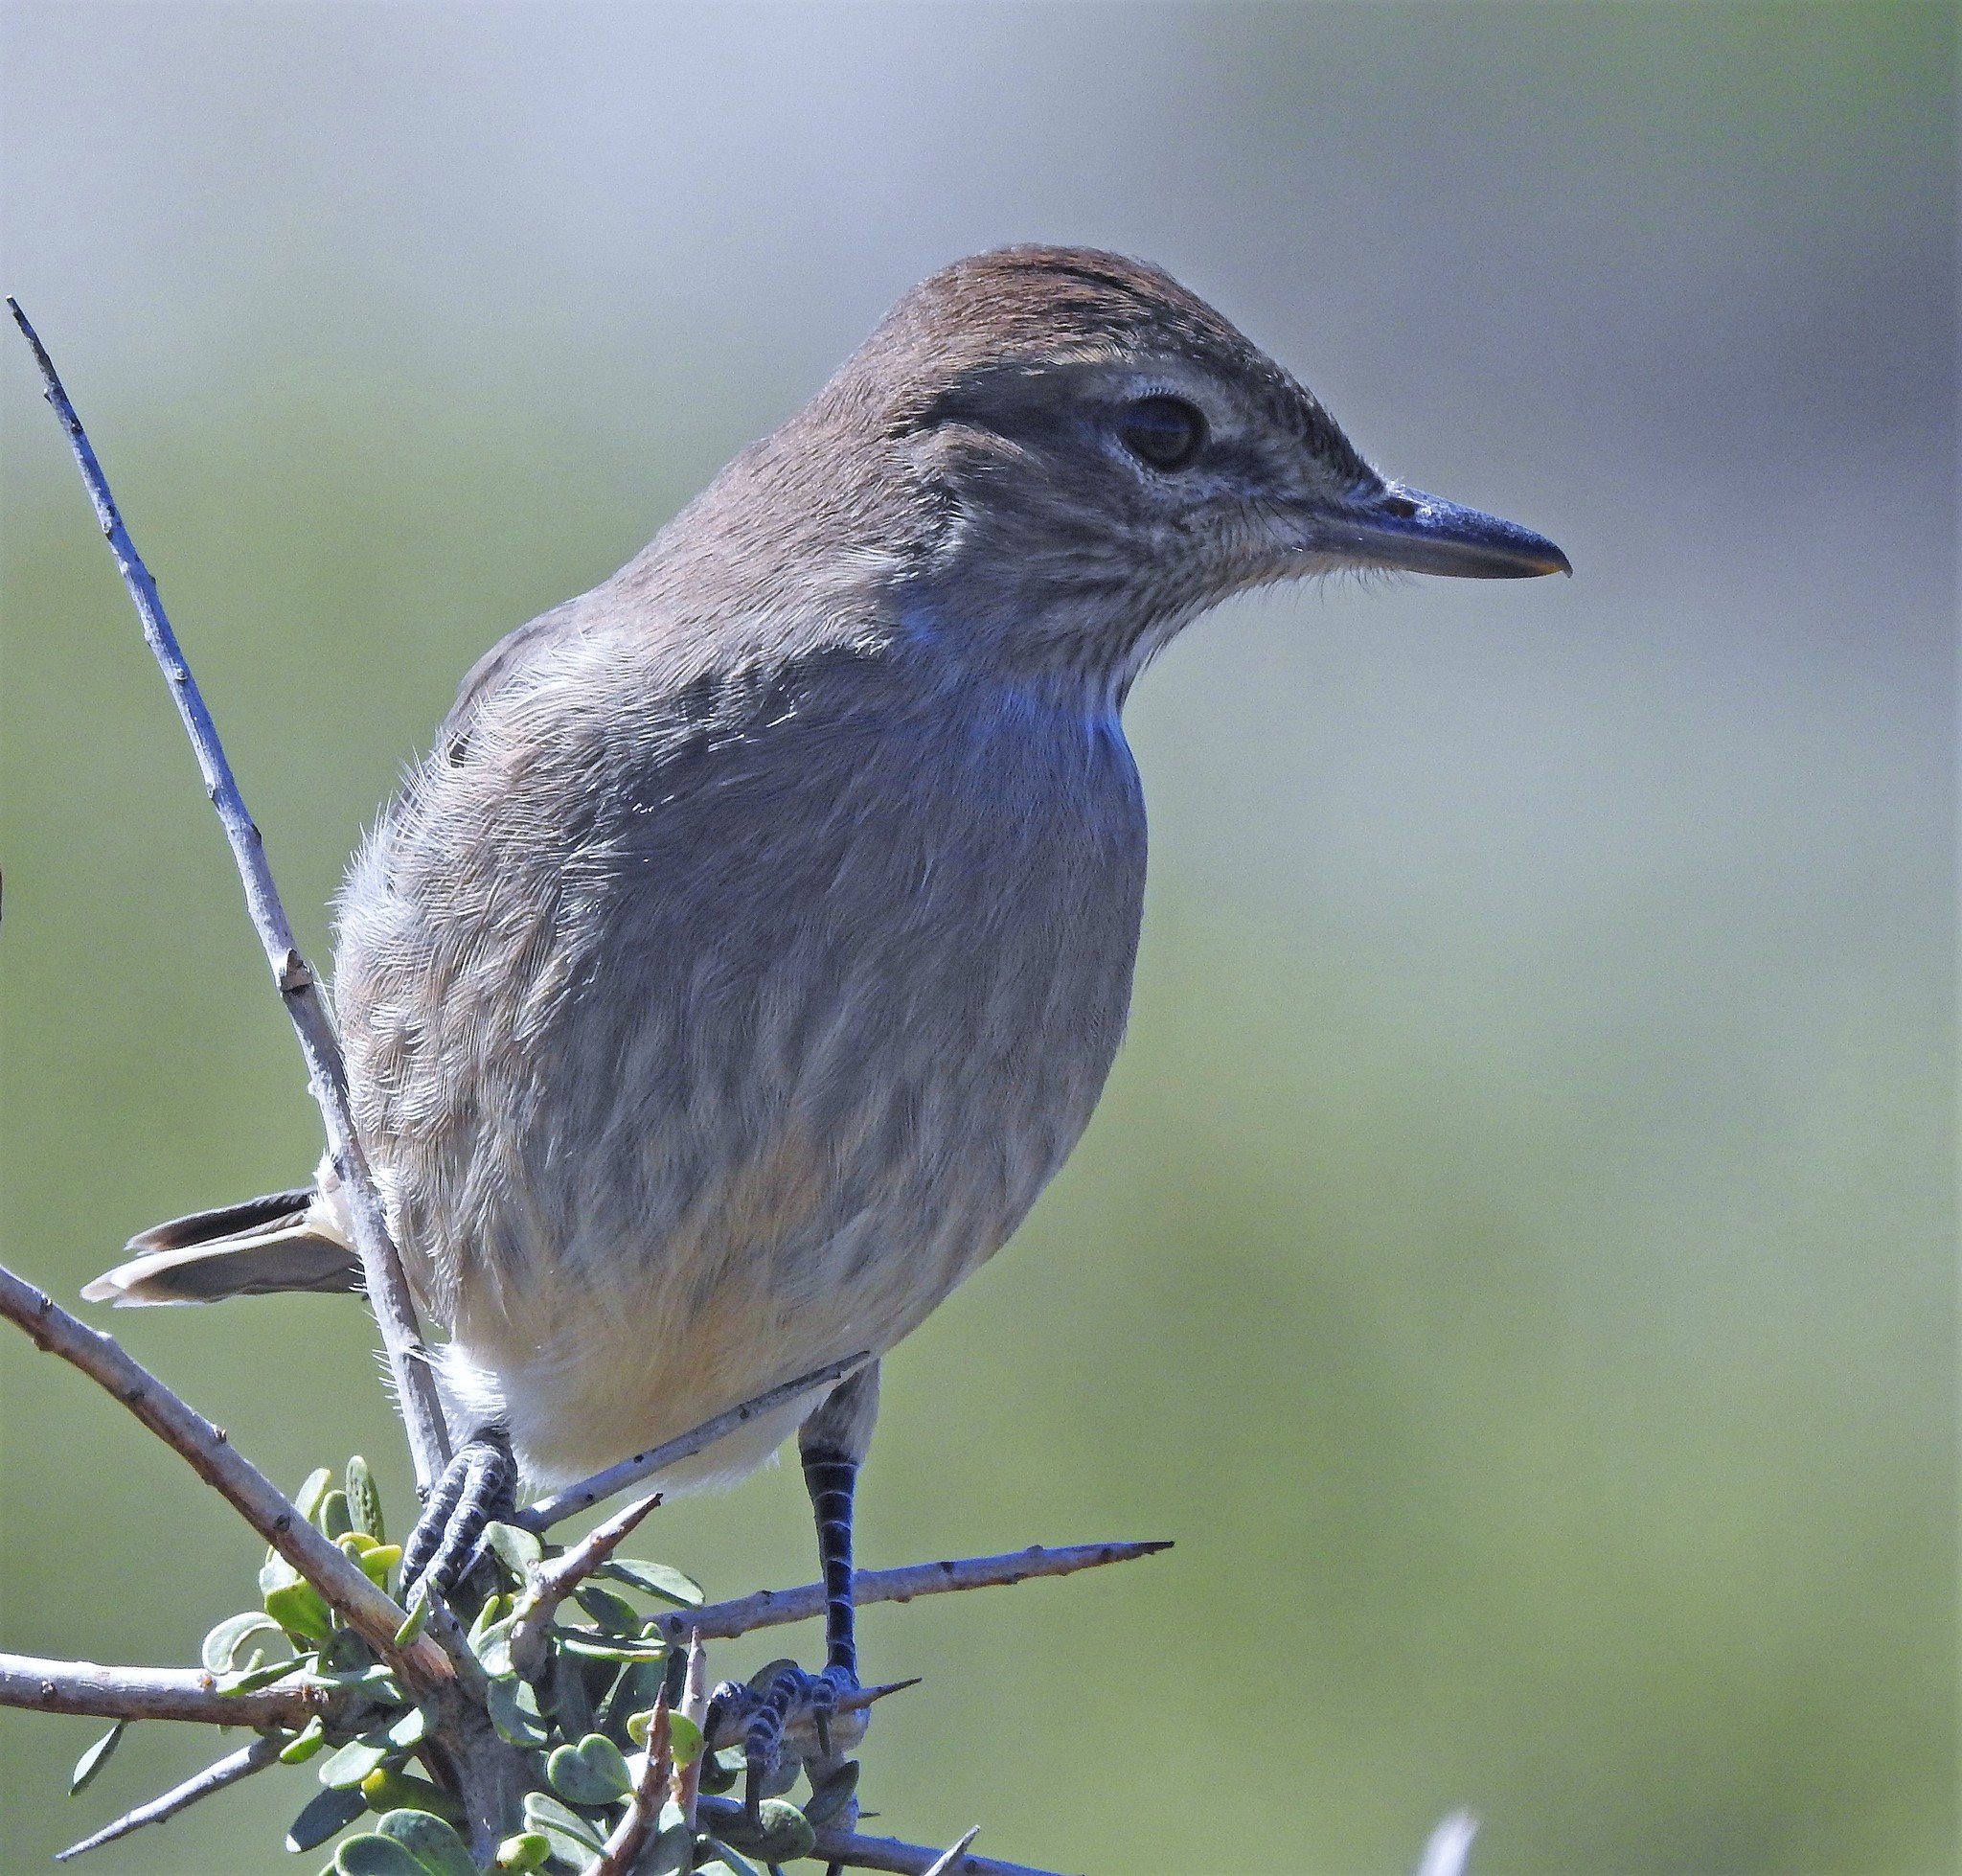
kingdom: Animalia
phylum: Chordata
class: Aves
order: Passeriformes
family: Tyrannidae
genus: Agriornis
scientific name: Agriornis micropterus
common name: Grey-bellied shrike-tyrant
